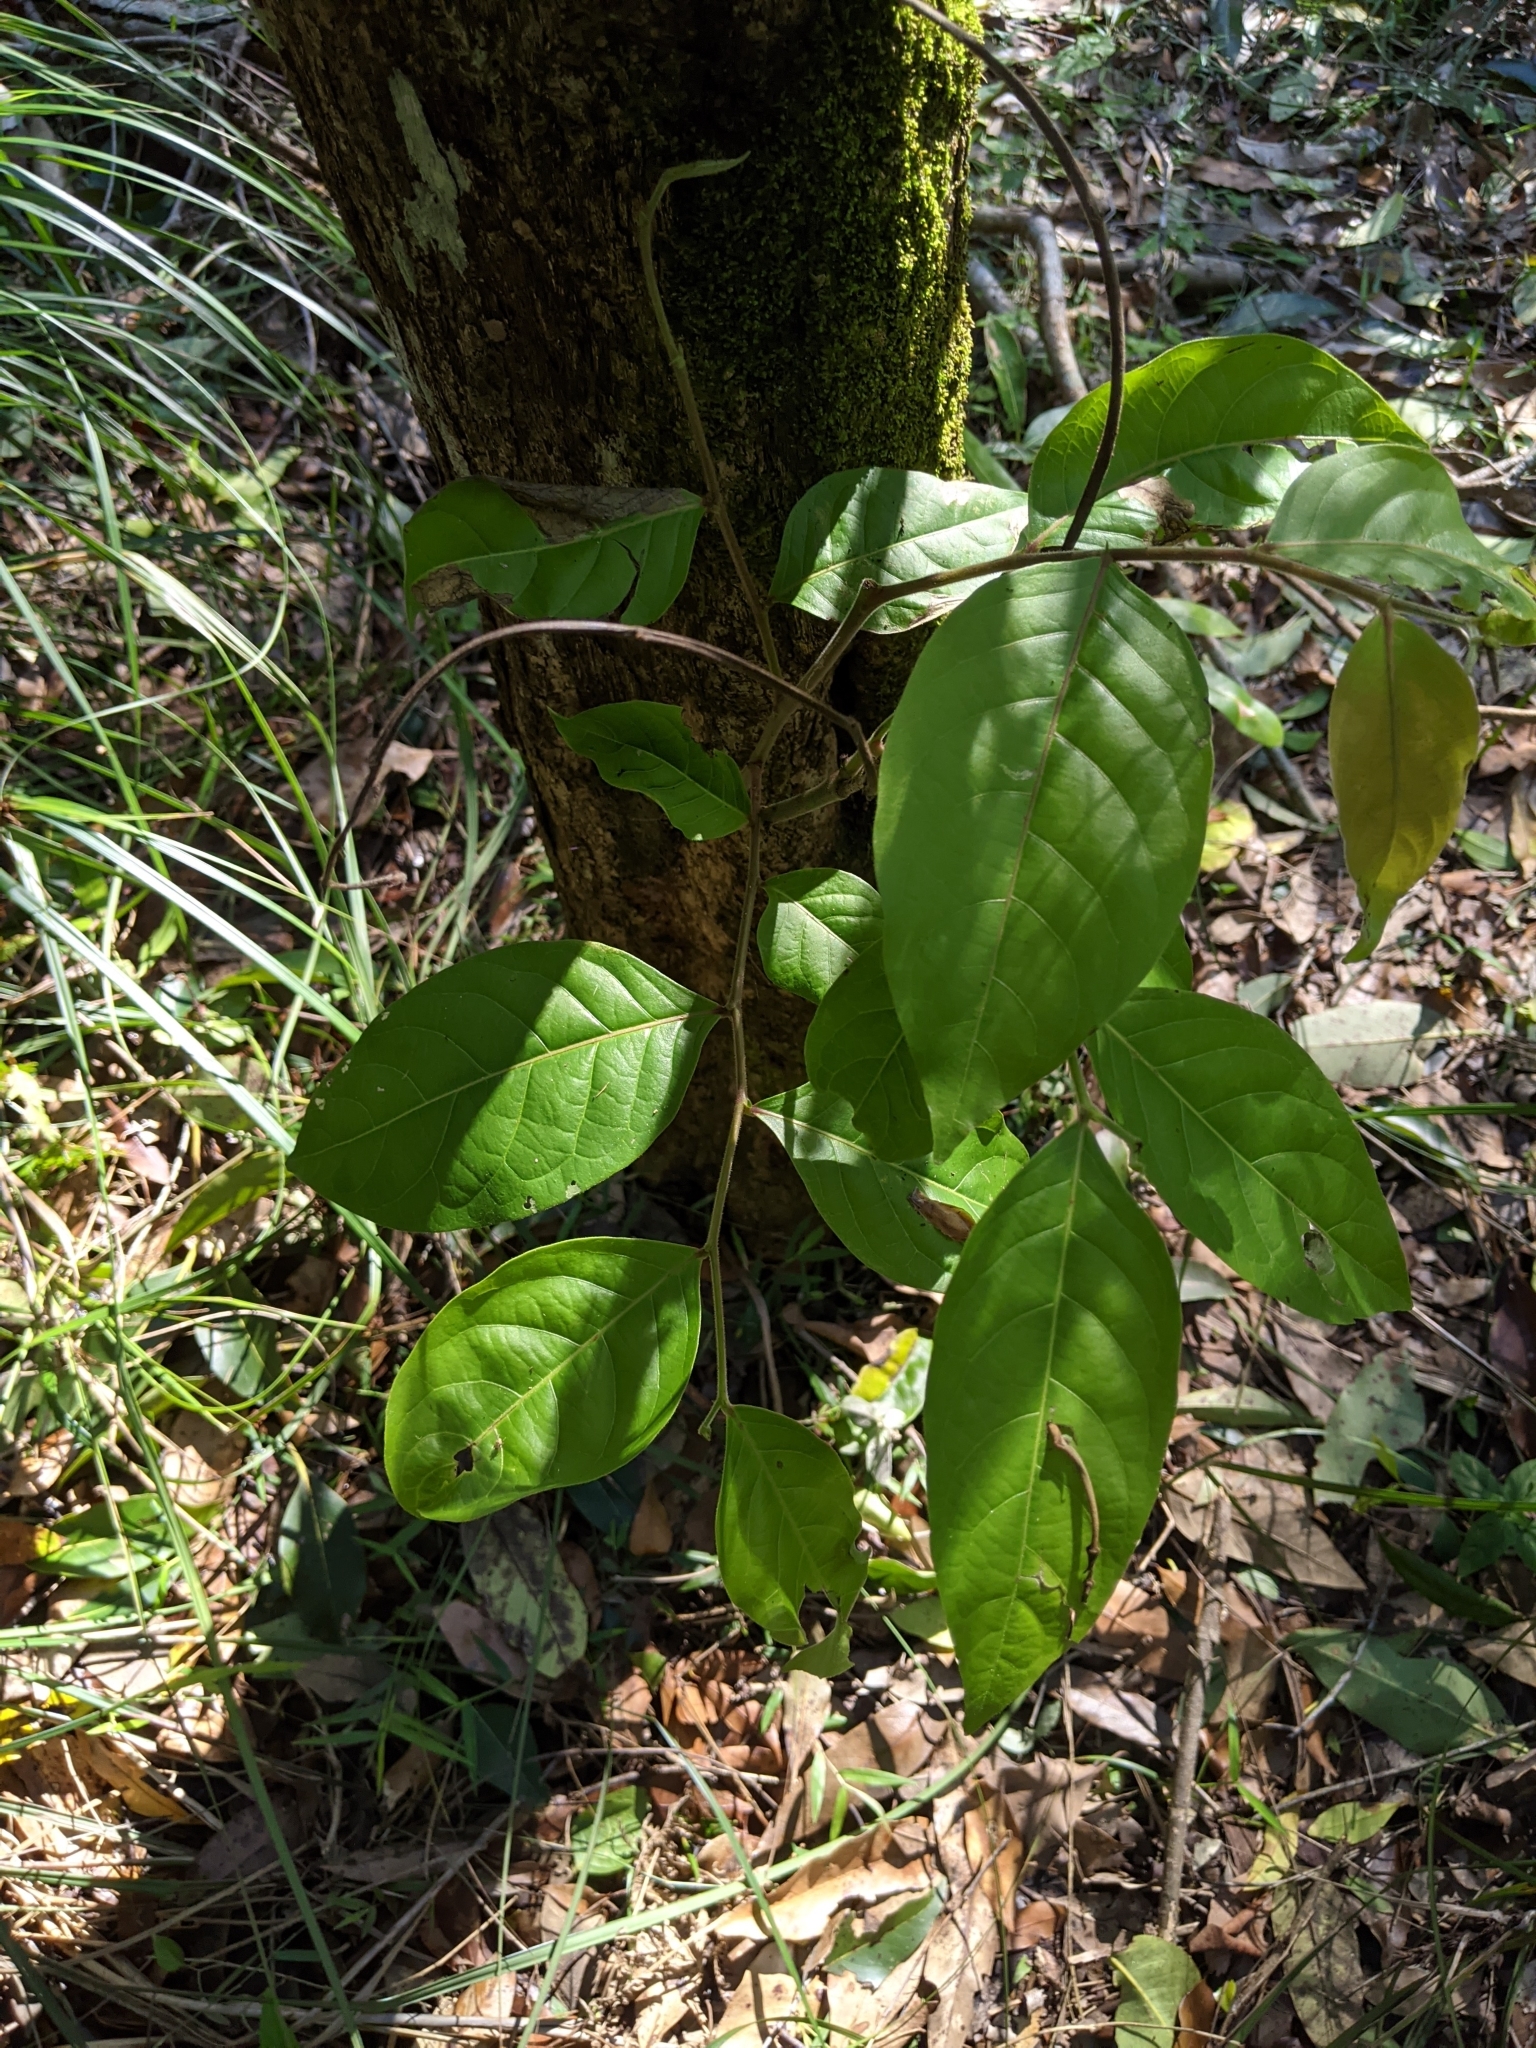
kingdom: Plantae
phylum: Tracheophyta
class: Magnoliopsida
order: Malpighiales
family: Phyllanthaceae
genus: Glochidion
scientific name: Glochidion zeylanicum
